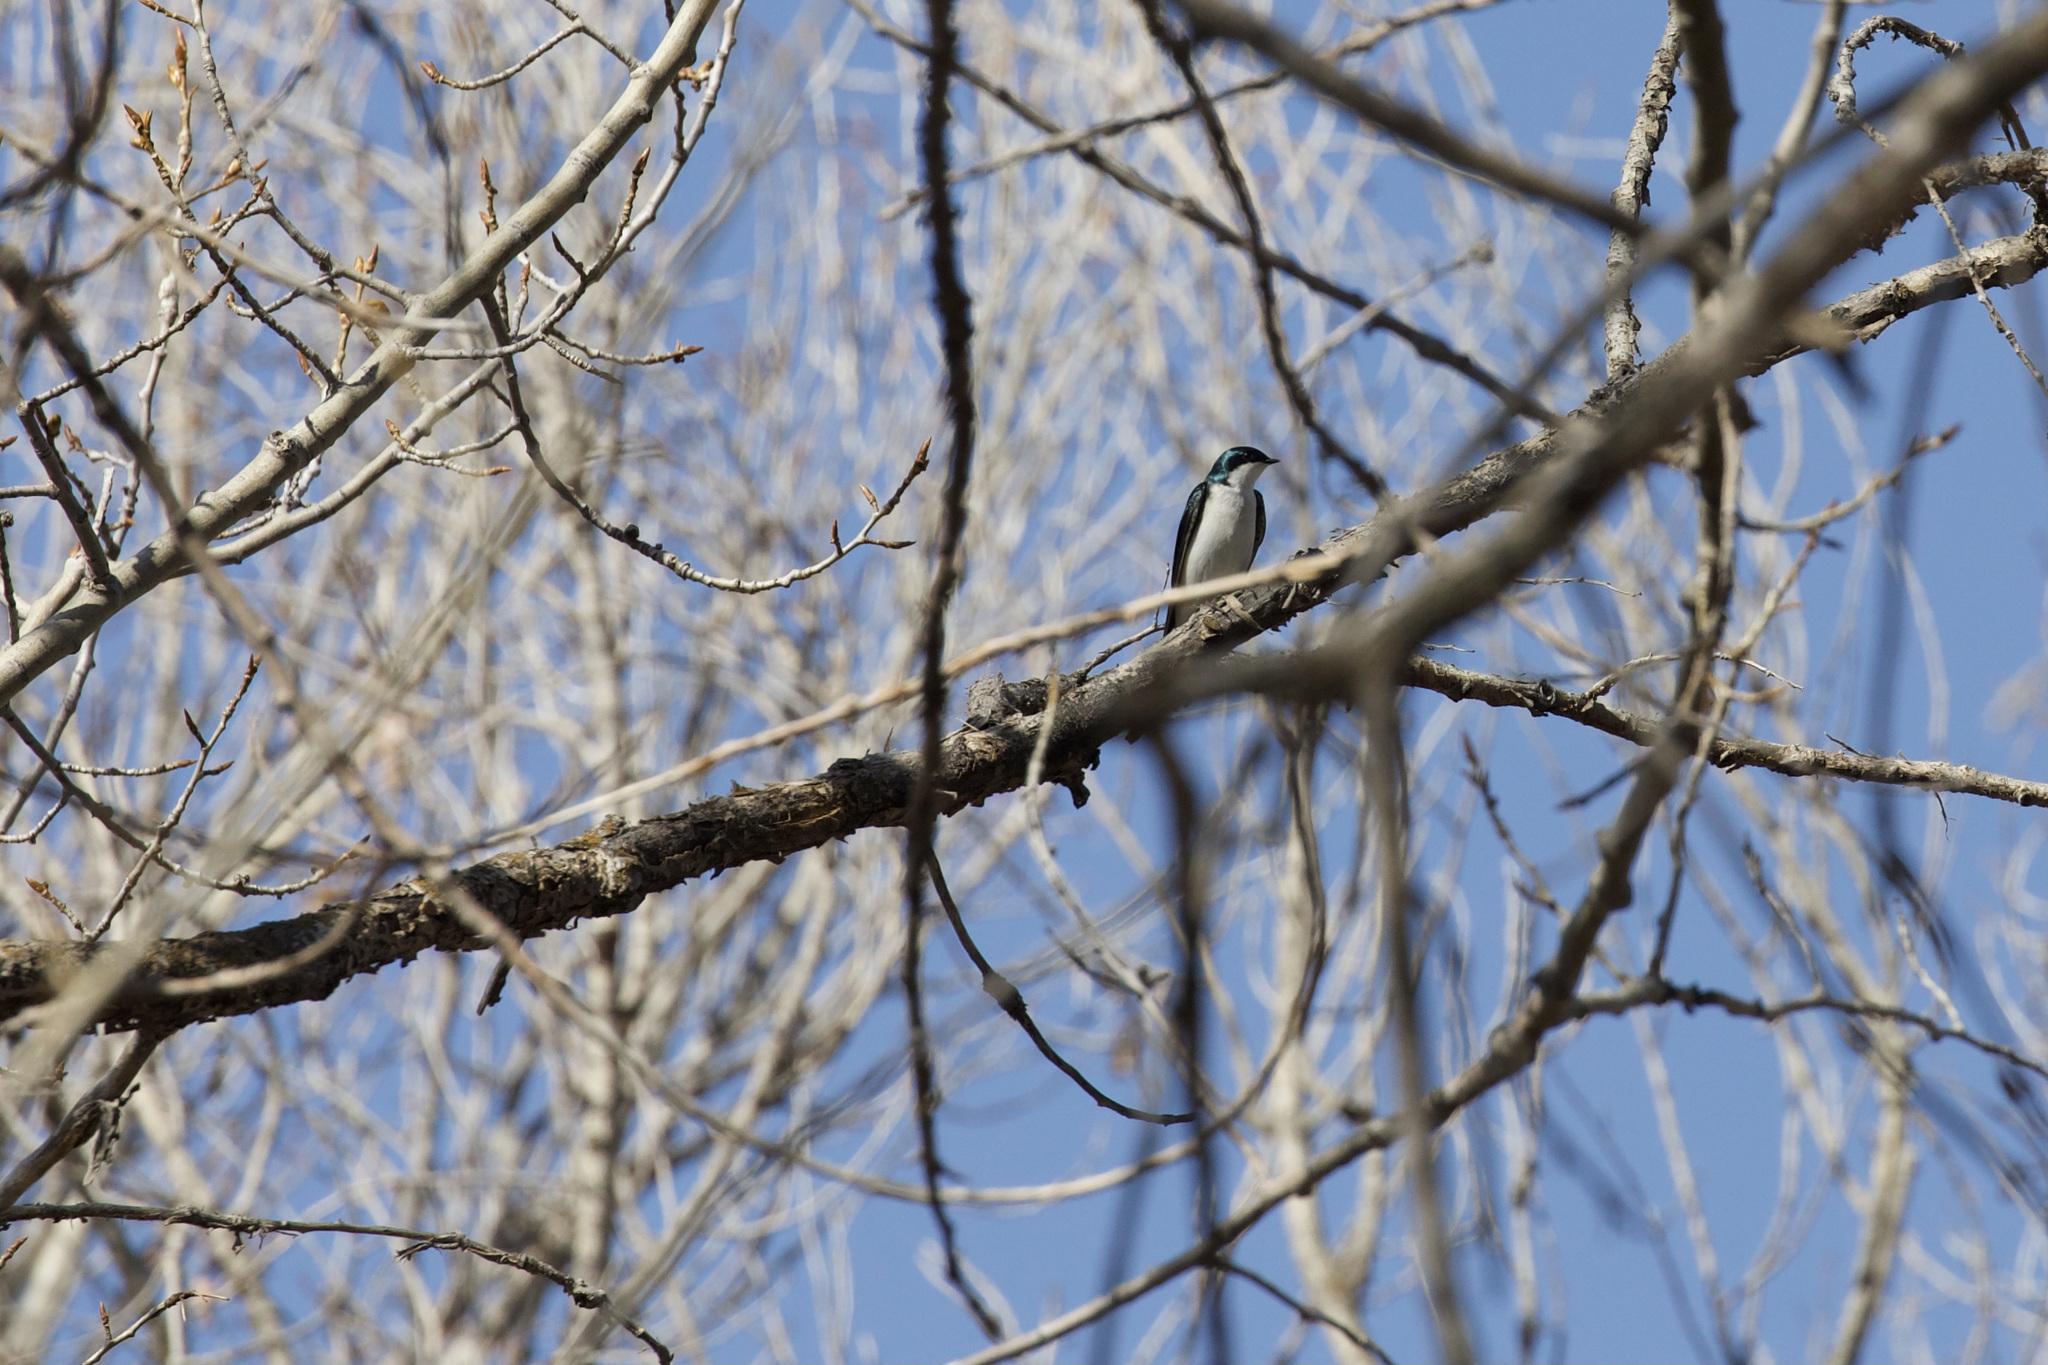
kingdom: Animalia
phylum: Chordata
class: Aves
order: Passeriformes
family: Hirundinidae
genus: Tachycineta
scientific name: Tachycineta bicolor
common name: Tree swallow
